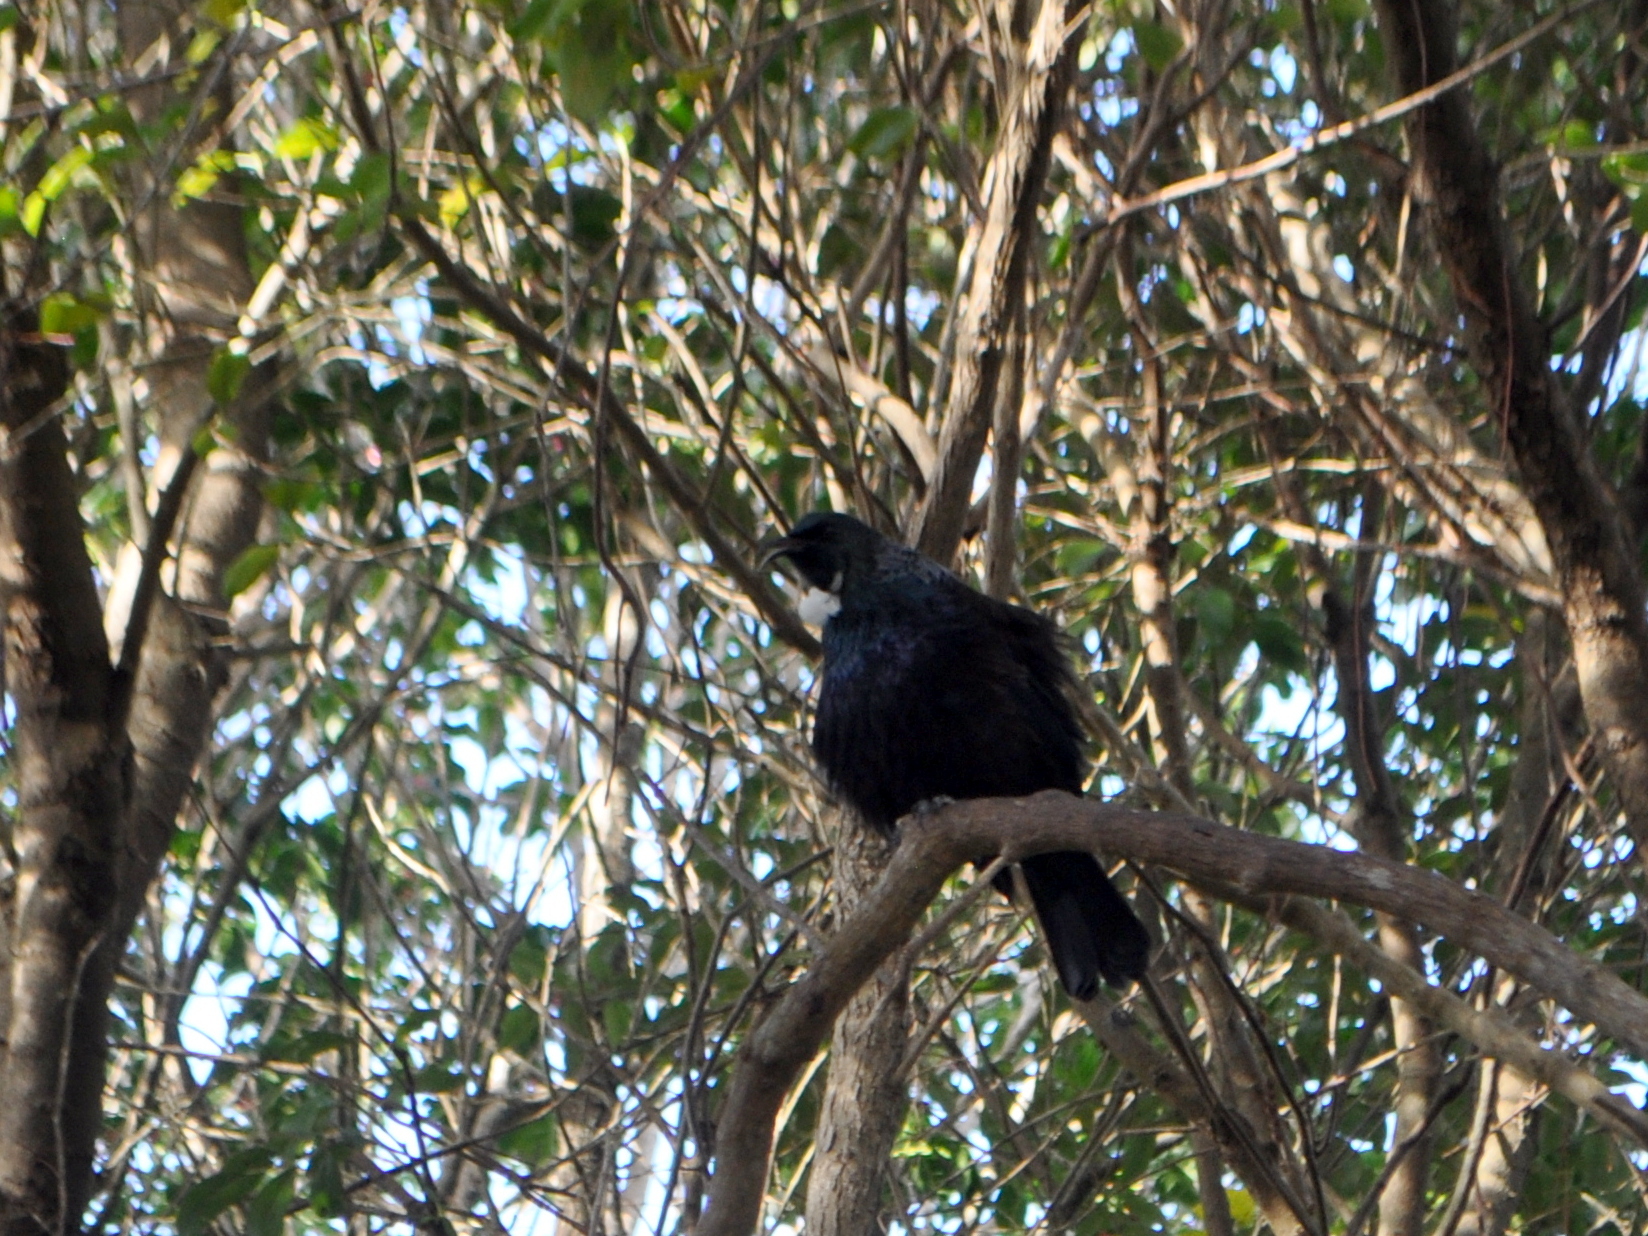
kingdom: Animalia
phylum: Chordata
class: Aves
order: Passeriformes
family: Meliphagidae
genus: Prosthemadera
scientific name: Prosthemadera novaeseelandiae
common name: Tui
